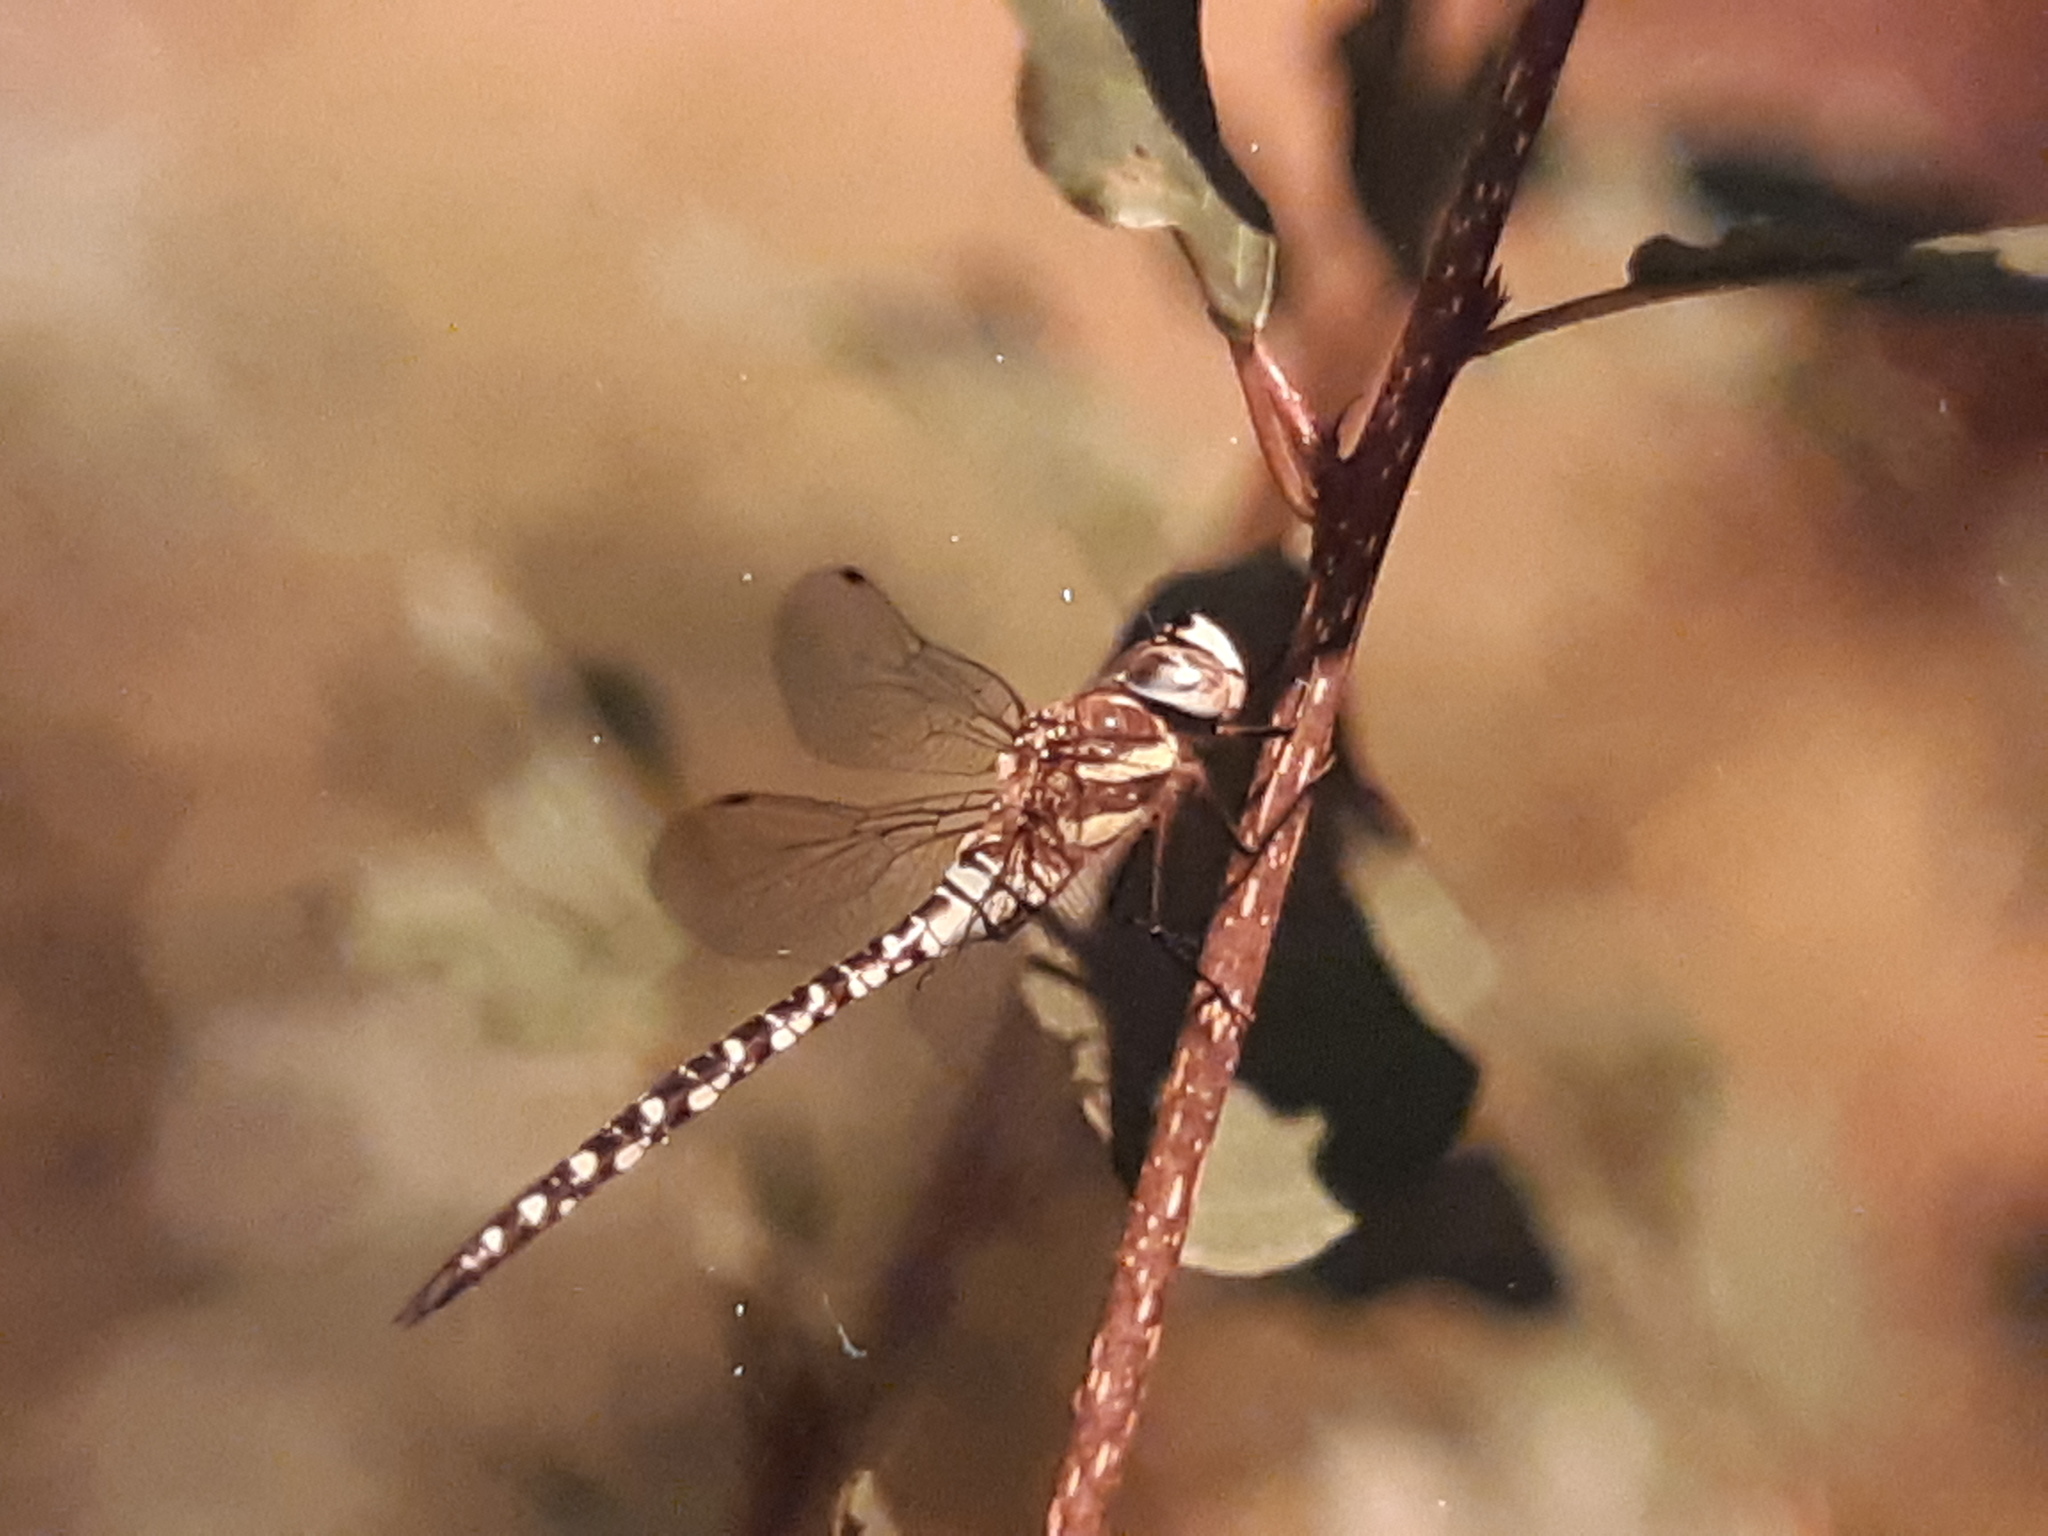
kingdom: Animalia
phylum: Arthropoda
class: Insecta
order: Odonata
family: Aeshnidae
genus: Aeshna
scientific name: Aeshna mixta
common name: Migrant hawker
